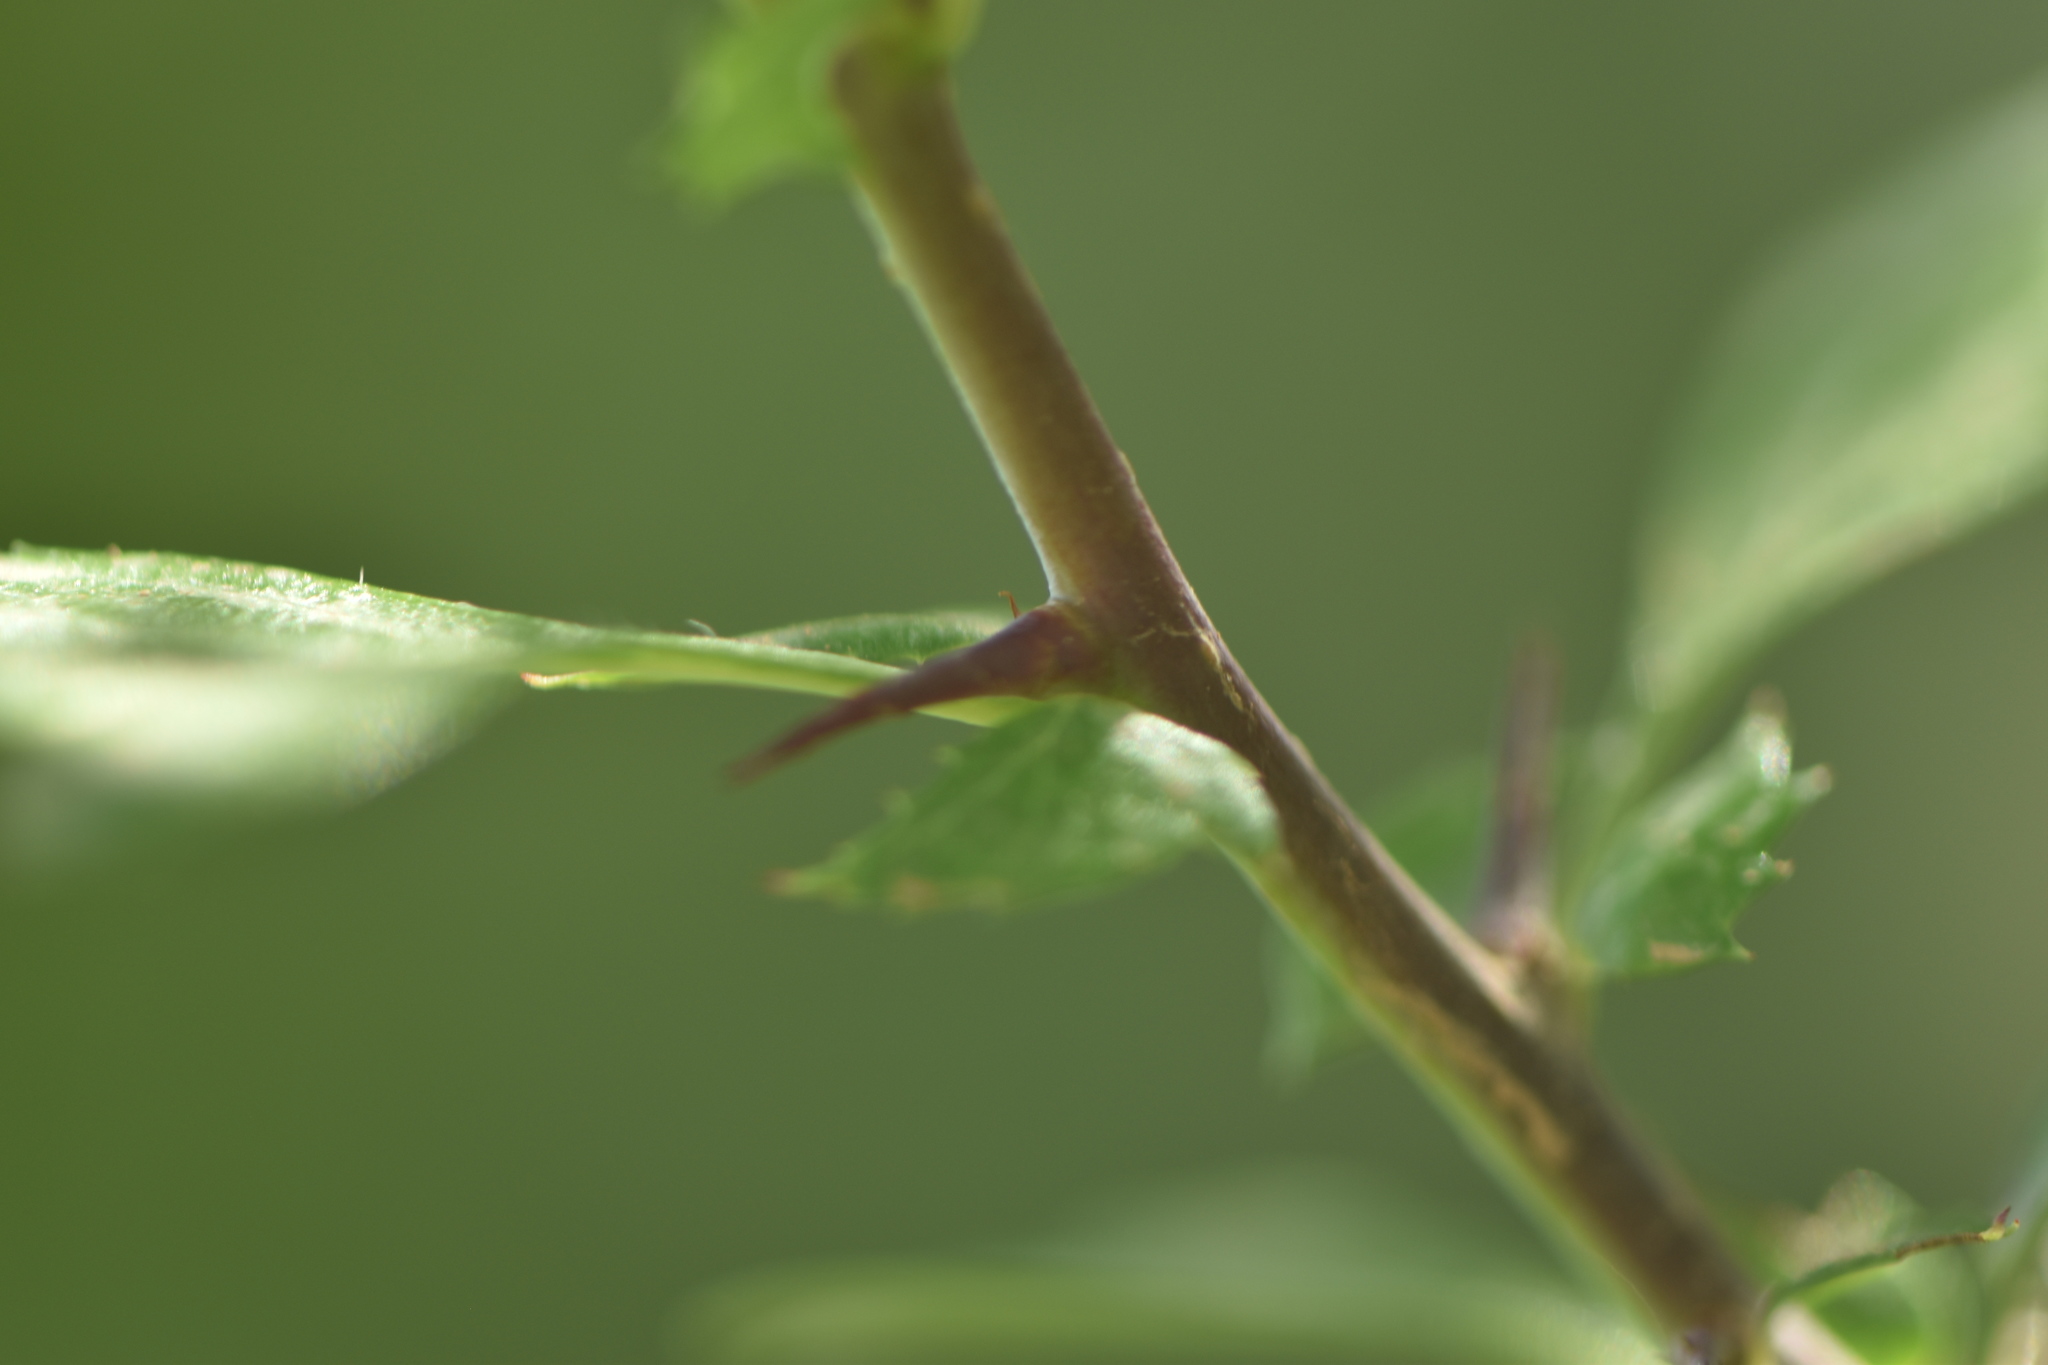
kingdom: Plantae
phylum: Tracheophyta
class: Magnoliopsida
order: Rosales
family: Rosaceae
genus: Crataegus
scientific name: Crataegus monogyna
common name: Hawthorn
